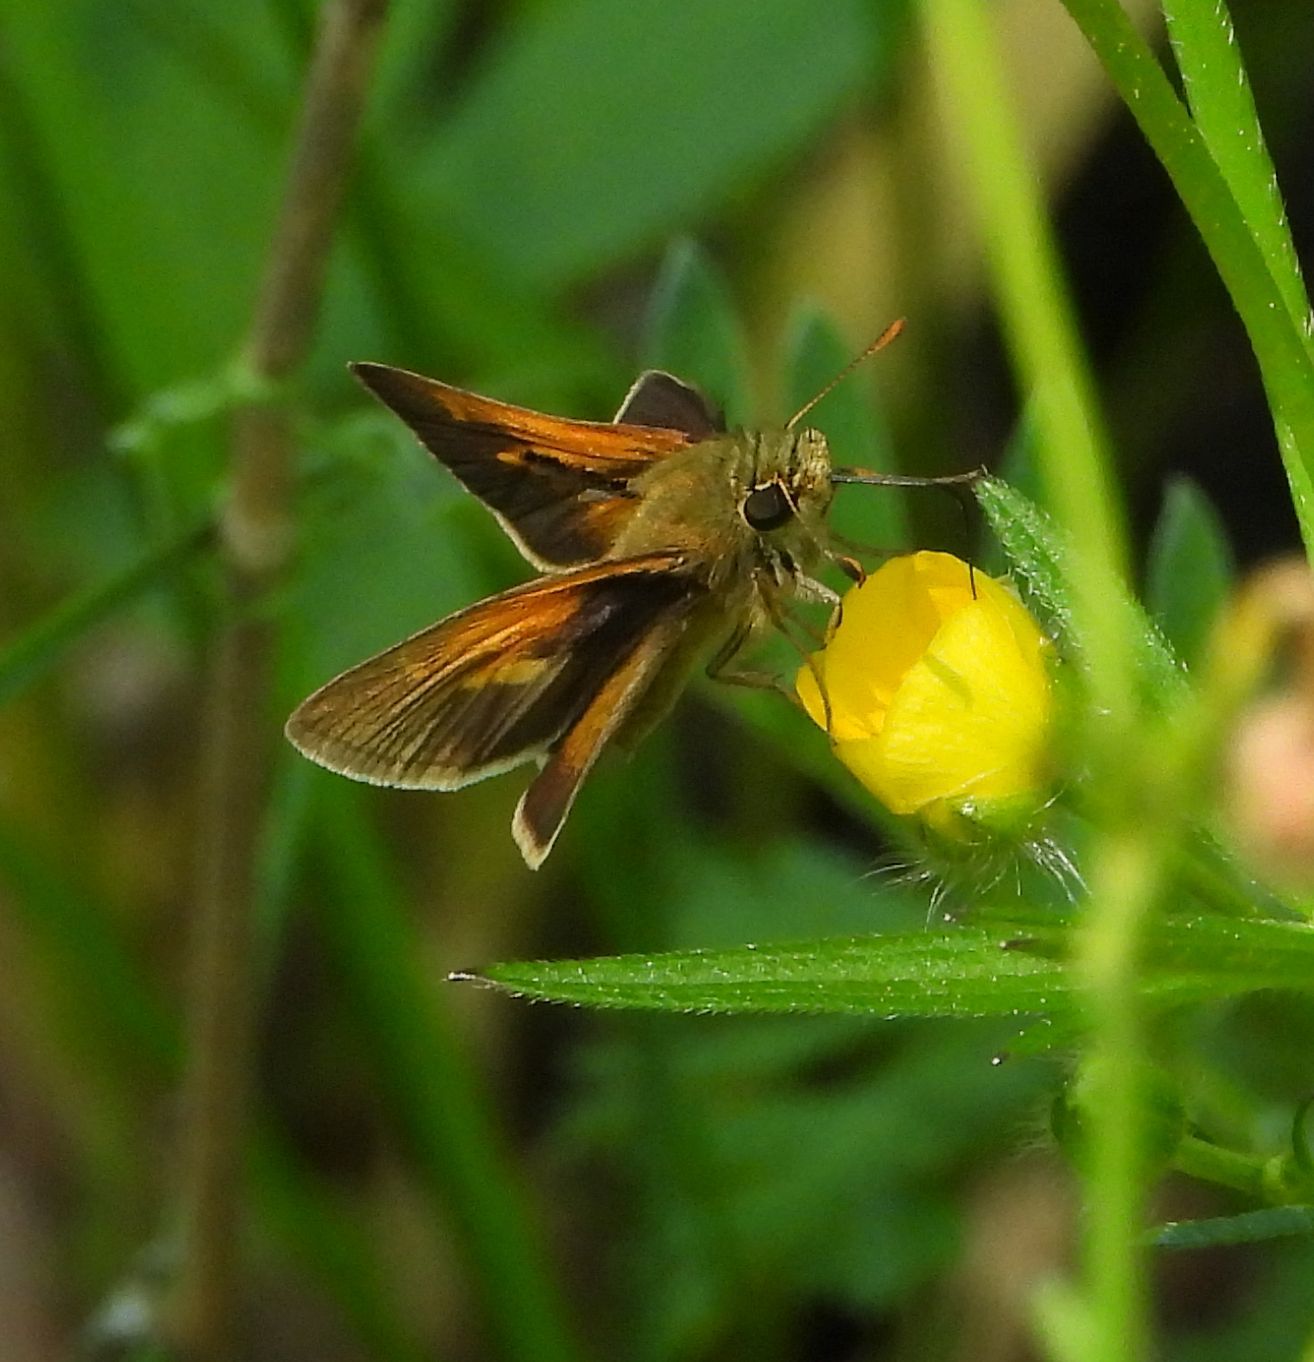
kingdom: Animalia
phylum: Arthropoda
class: Insecta
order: Lepidoptera
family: Hesperiidae
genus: Polites
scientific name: Polites themistocles
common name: Tawny-edged skipper
